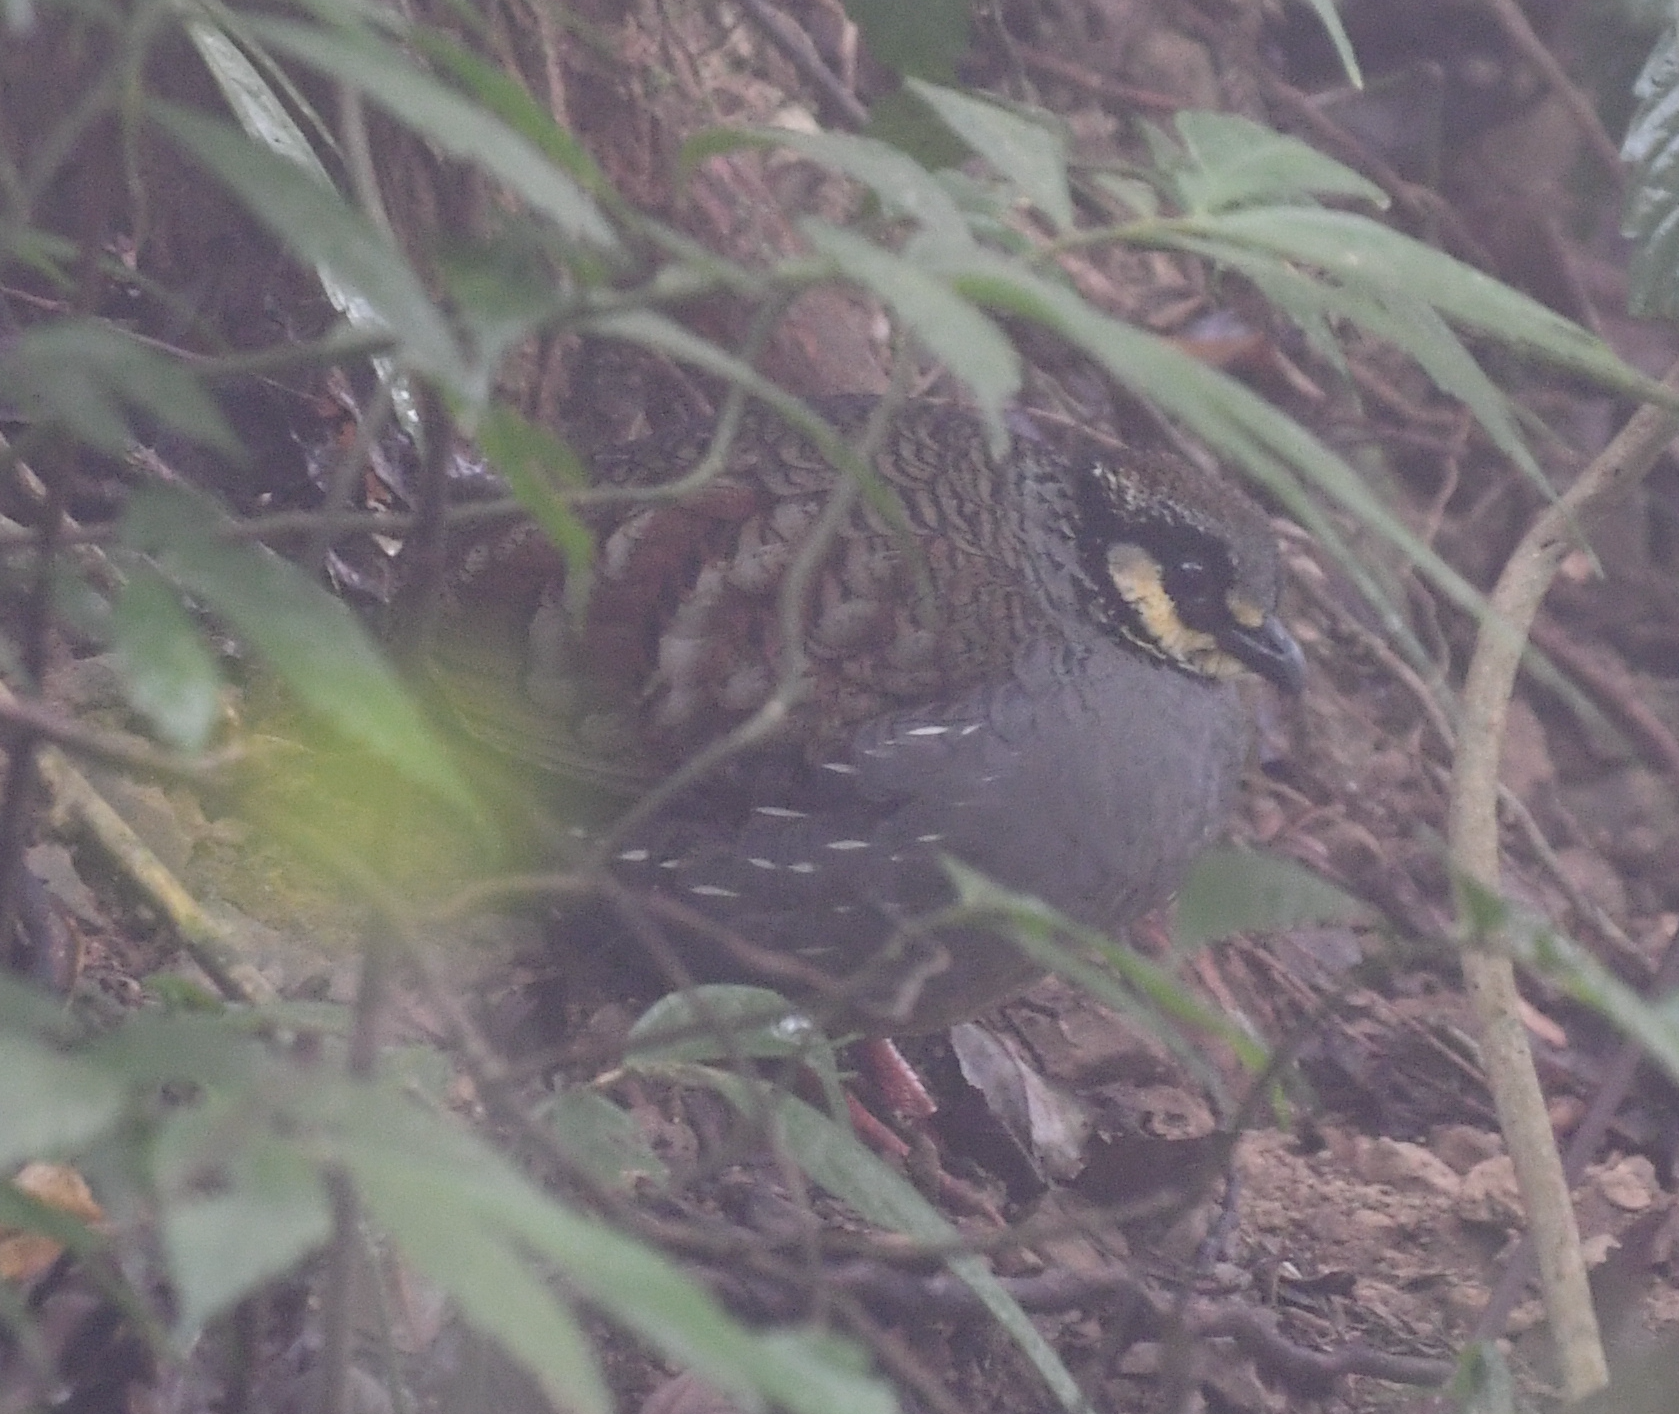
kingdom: Animalia
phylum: Chordata
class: Aves
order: Galliformes
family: Phasianidae
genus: Arborophila
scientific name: Arborophila crudigularis
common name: Taiwan partridge
